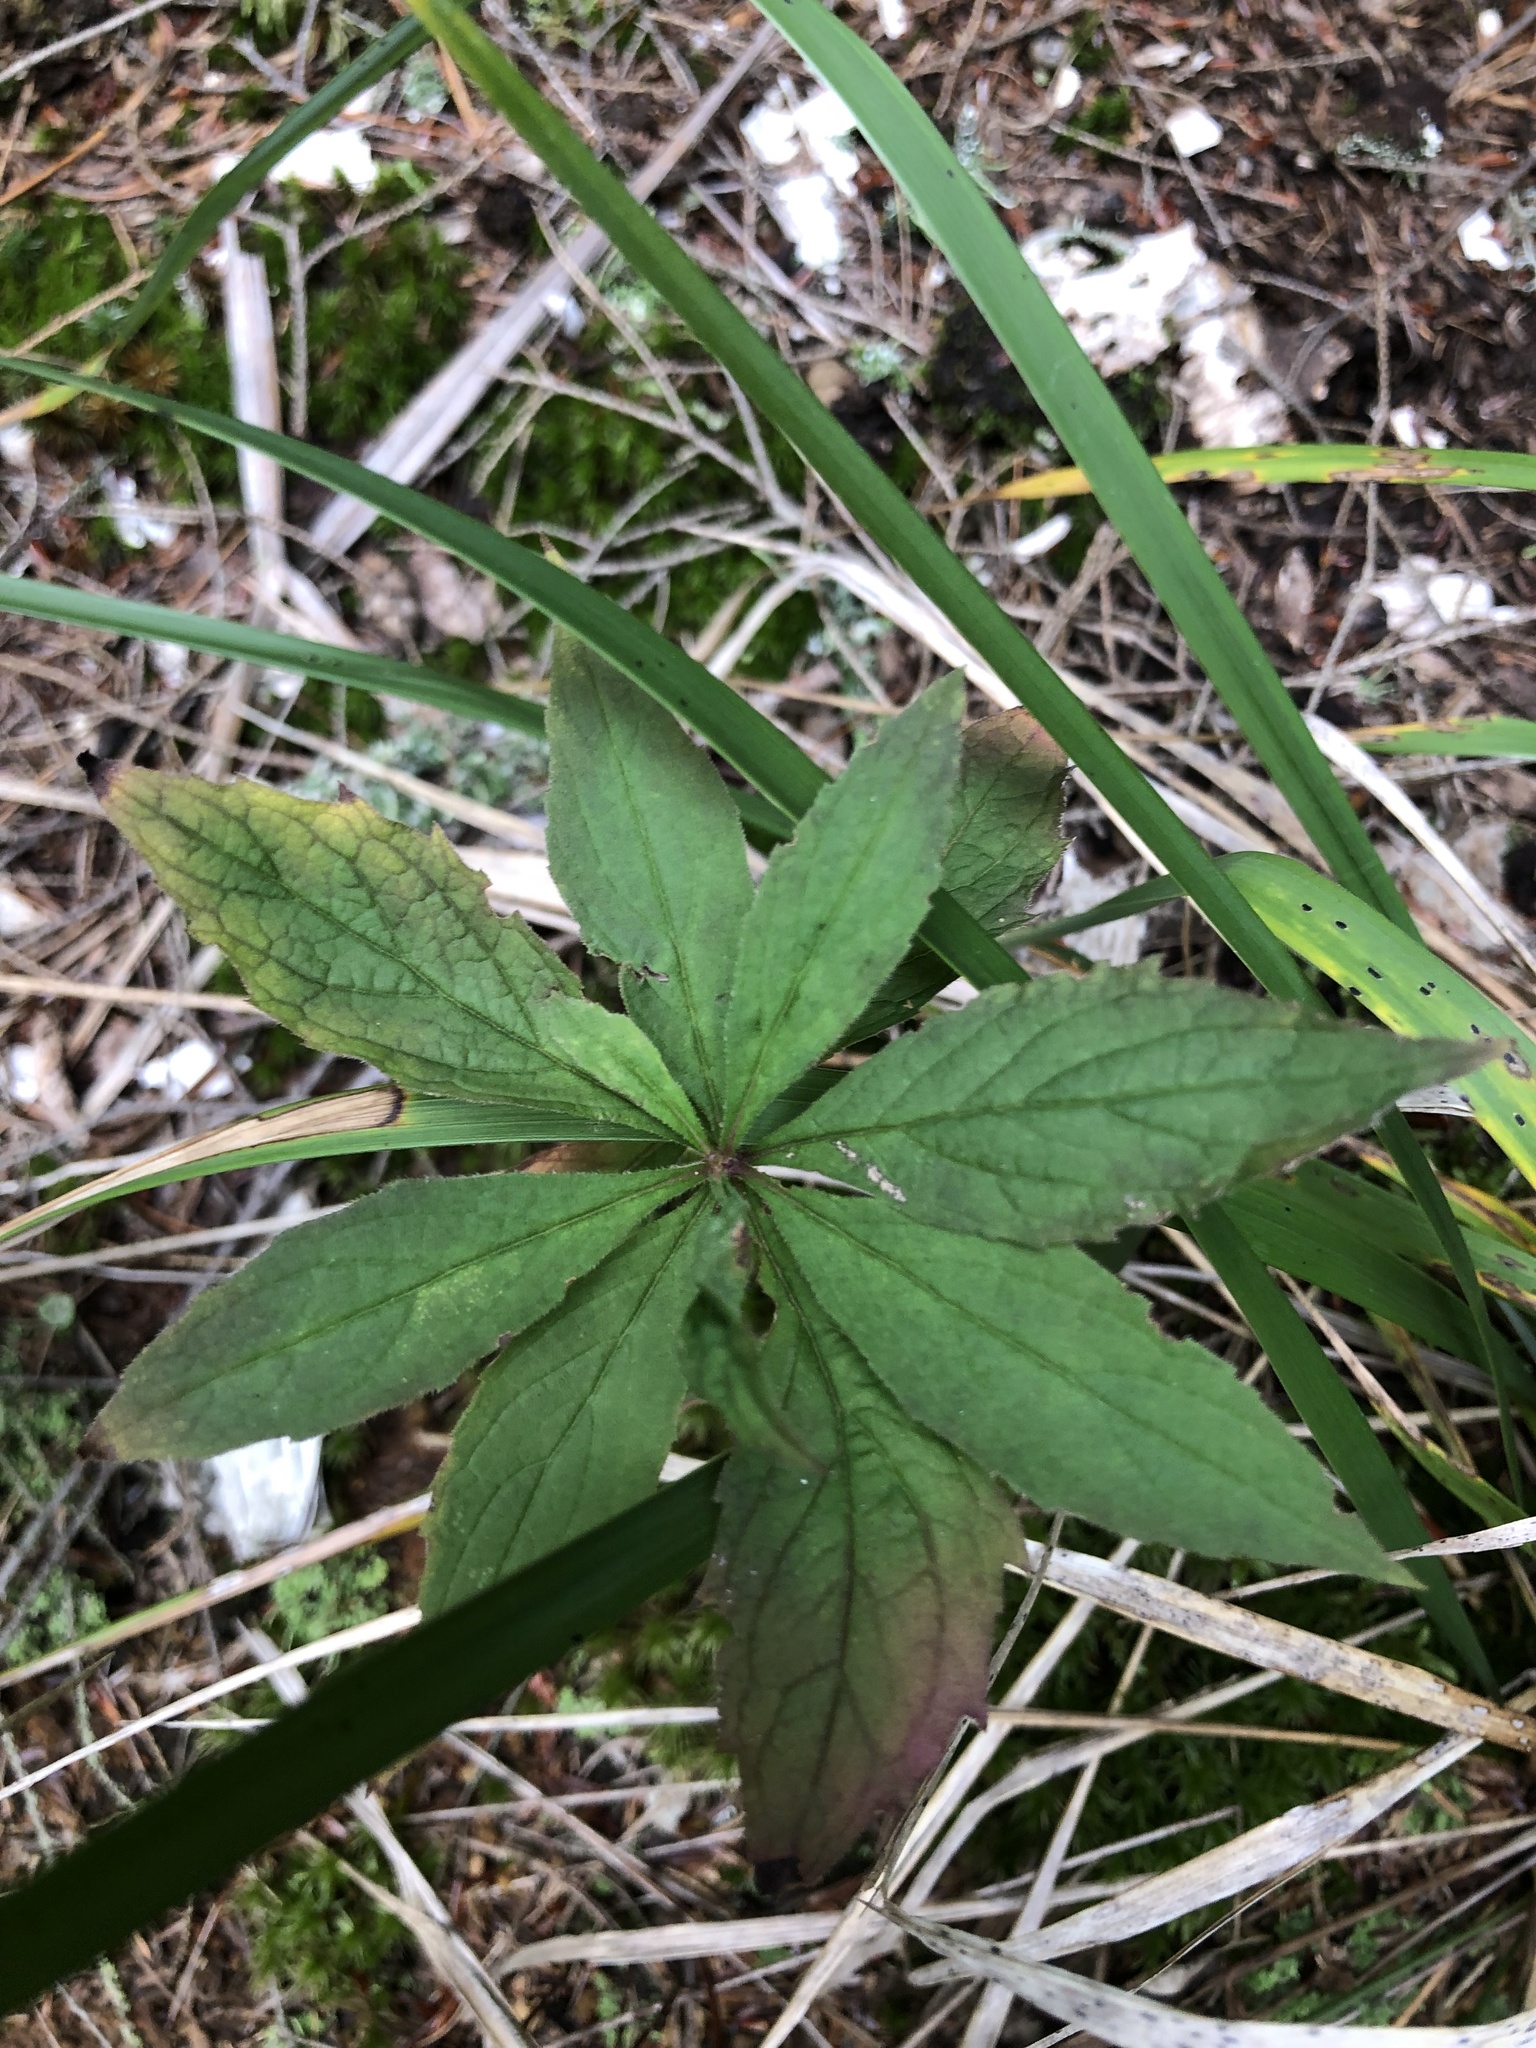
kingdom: Plantae
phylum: Tracheophyta
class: Magnoliopsida
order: Asterales
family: Asteraceae
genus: Oclemena
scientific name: Oclemena acuminata
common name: Mountain aster
